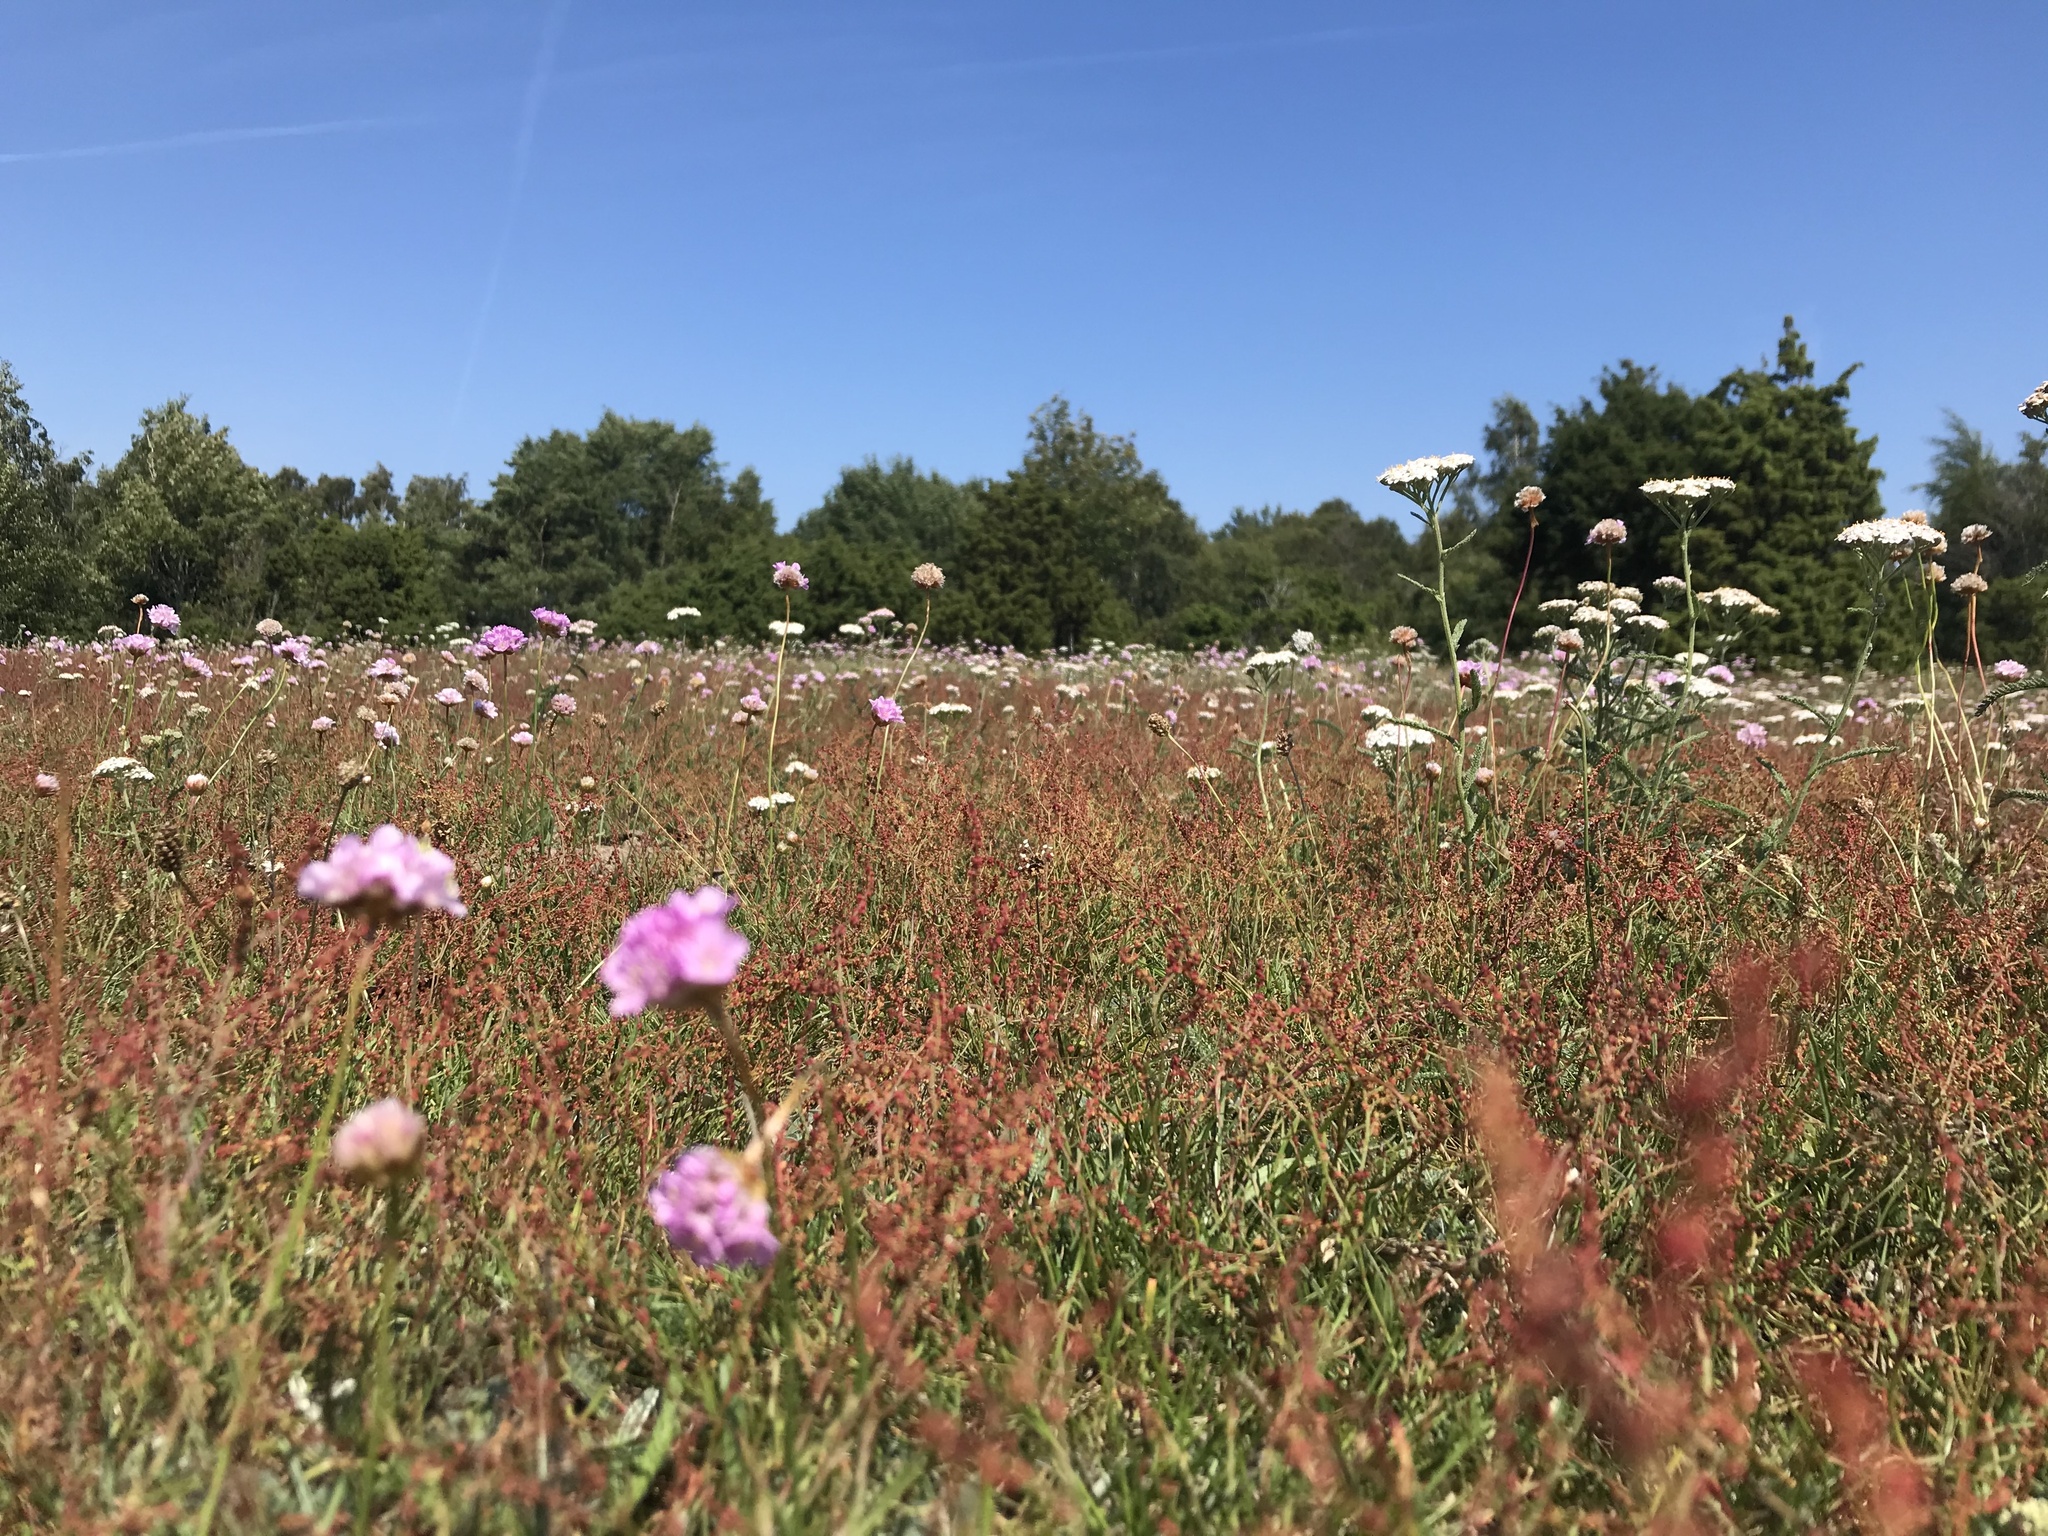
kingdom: Plantae
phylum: Tracheophyta
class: Magnoliopsida
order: Caryophyllales
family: Plumbaginaceae
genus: Armeria
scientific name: Armeria maritima
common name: Thrift
